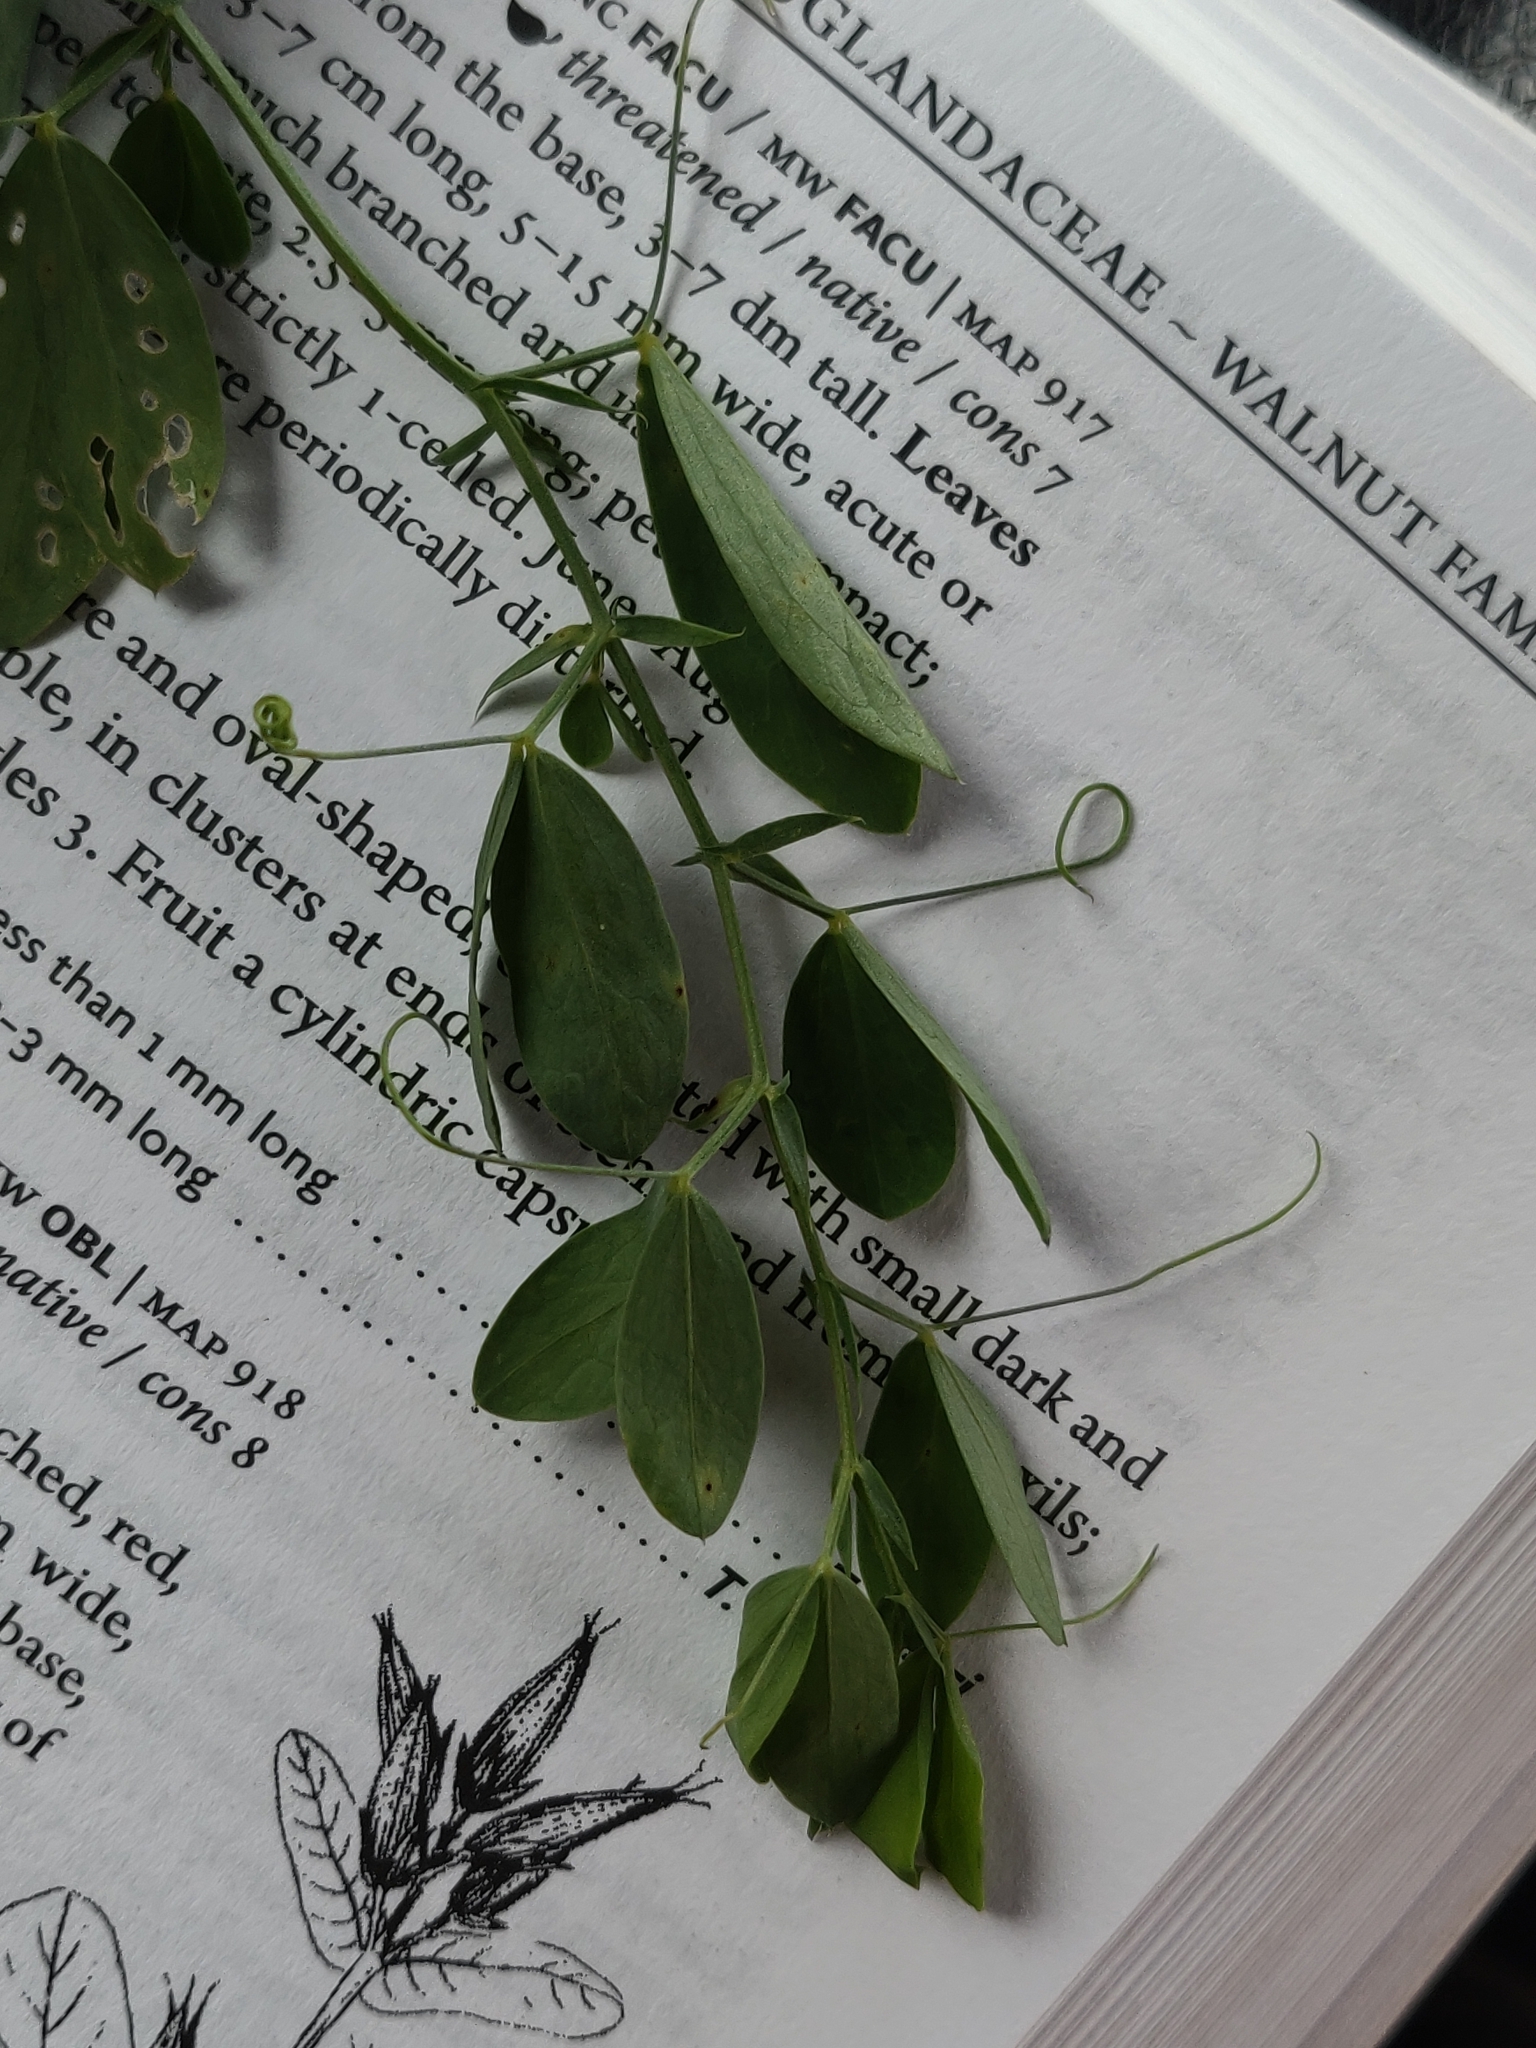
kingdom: Plantae
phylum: Tracheophyta
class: Magnoliopsida
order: Fabales
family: Fabaceae
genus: Lathyrus
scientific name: Lathyrus tuberosus
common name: Tuberous pea
